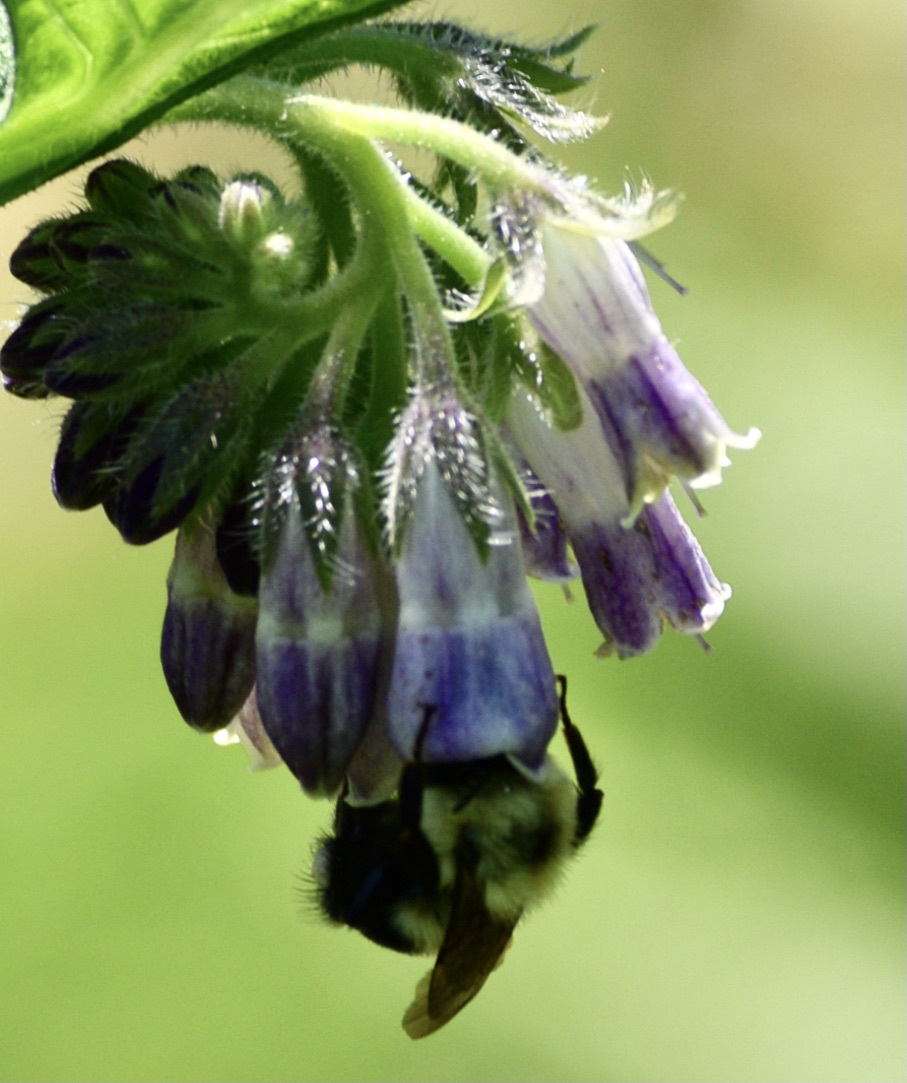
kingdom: Animalia
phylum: Arthropoda
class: Insecta
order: Hymenoptera
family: Apidae
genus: Bombus
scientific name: Bombus bimaculatus
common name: Two-spotted bumble bee
